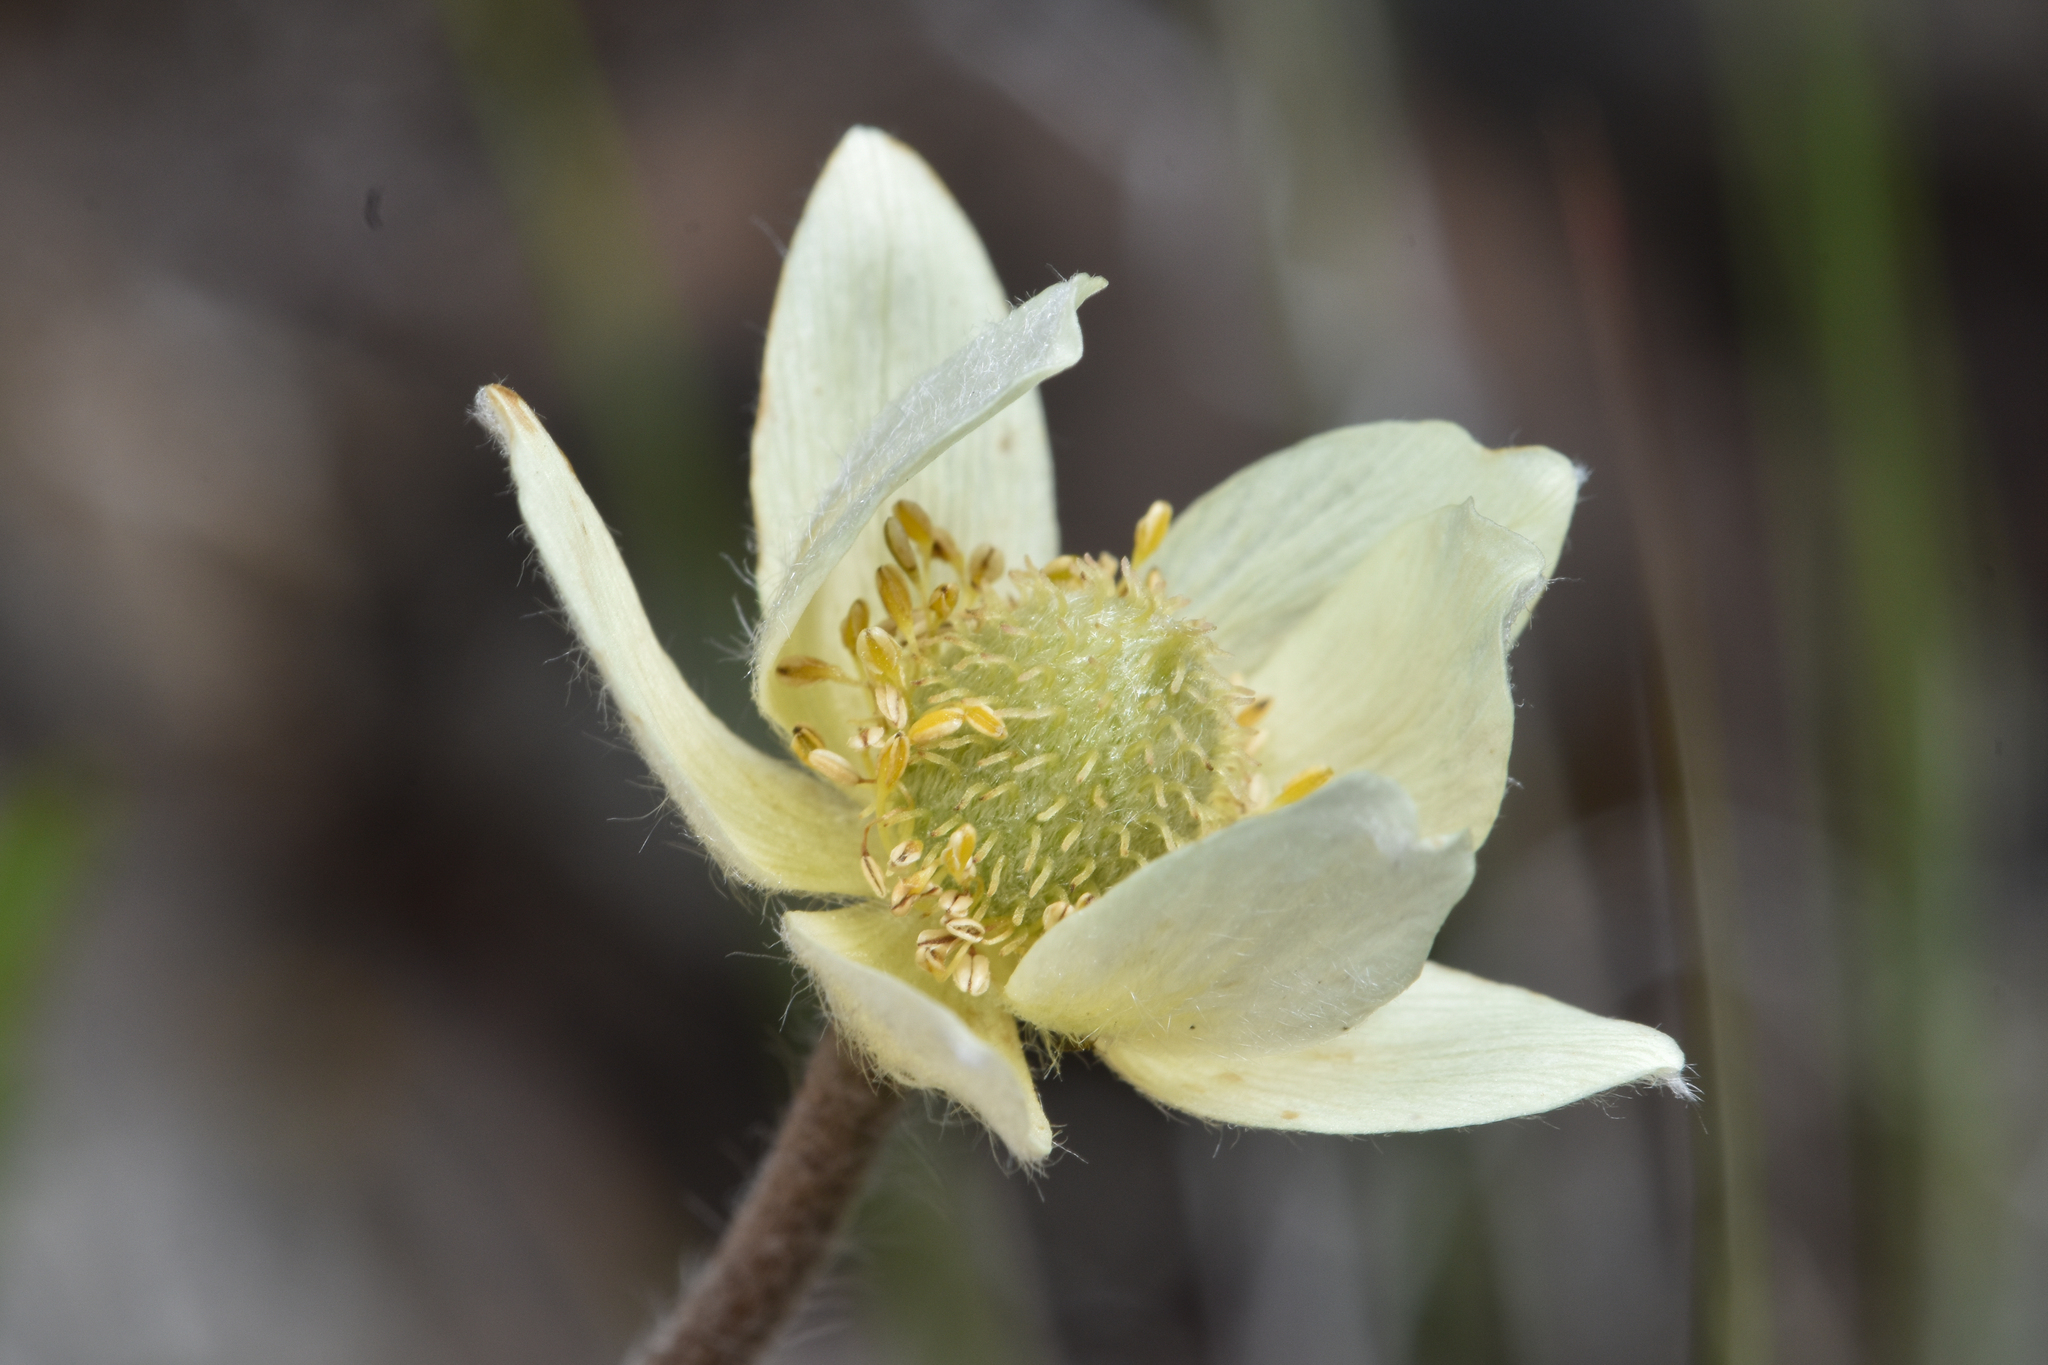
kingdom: Plantae
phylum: Tracheophyta
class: Magnoliopsida
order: Ranunculales
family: Ranunculaceae
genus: Anemone
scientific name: Anemone multifida
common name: Bird's-foot anemone
